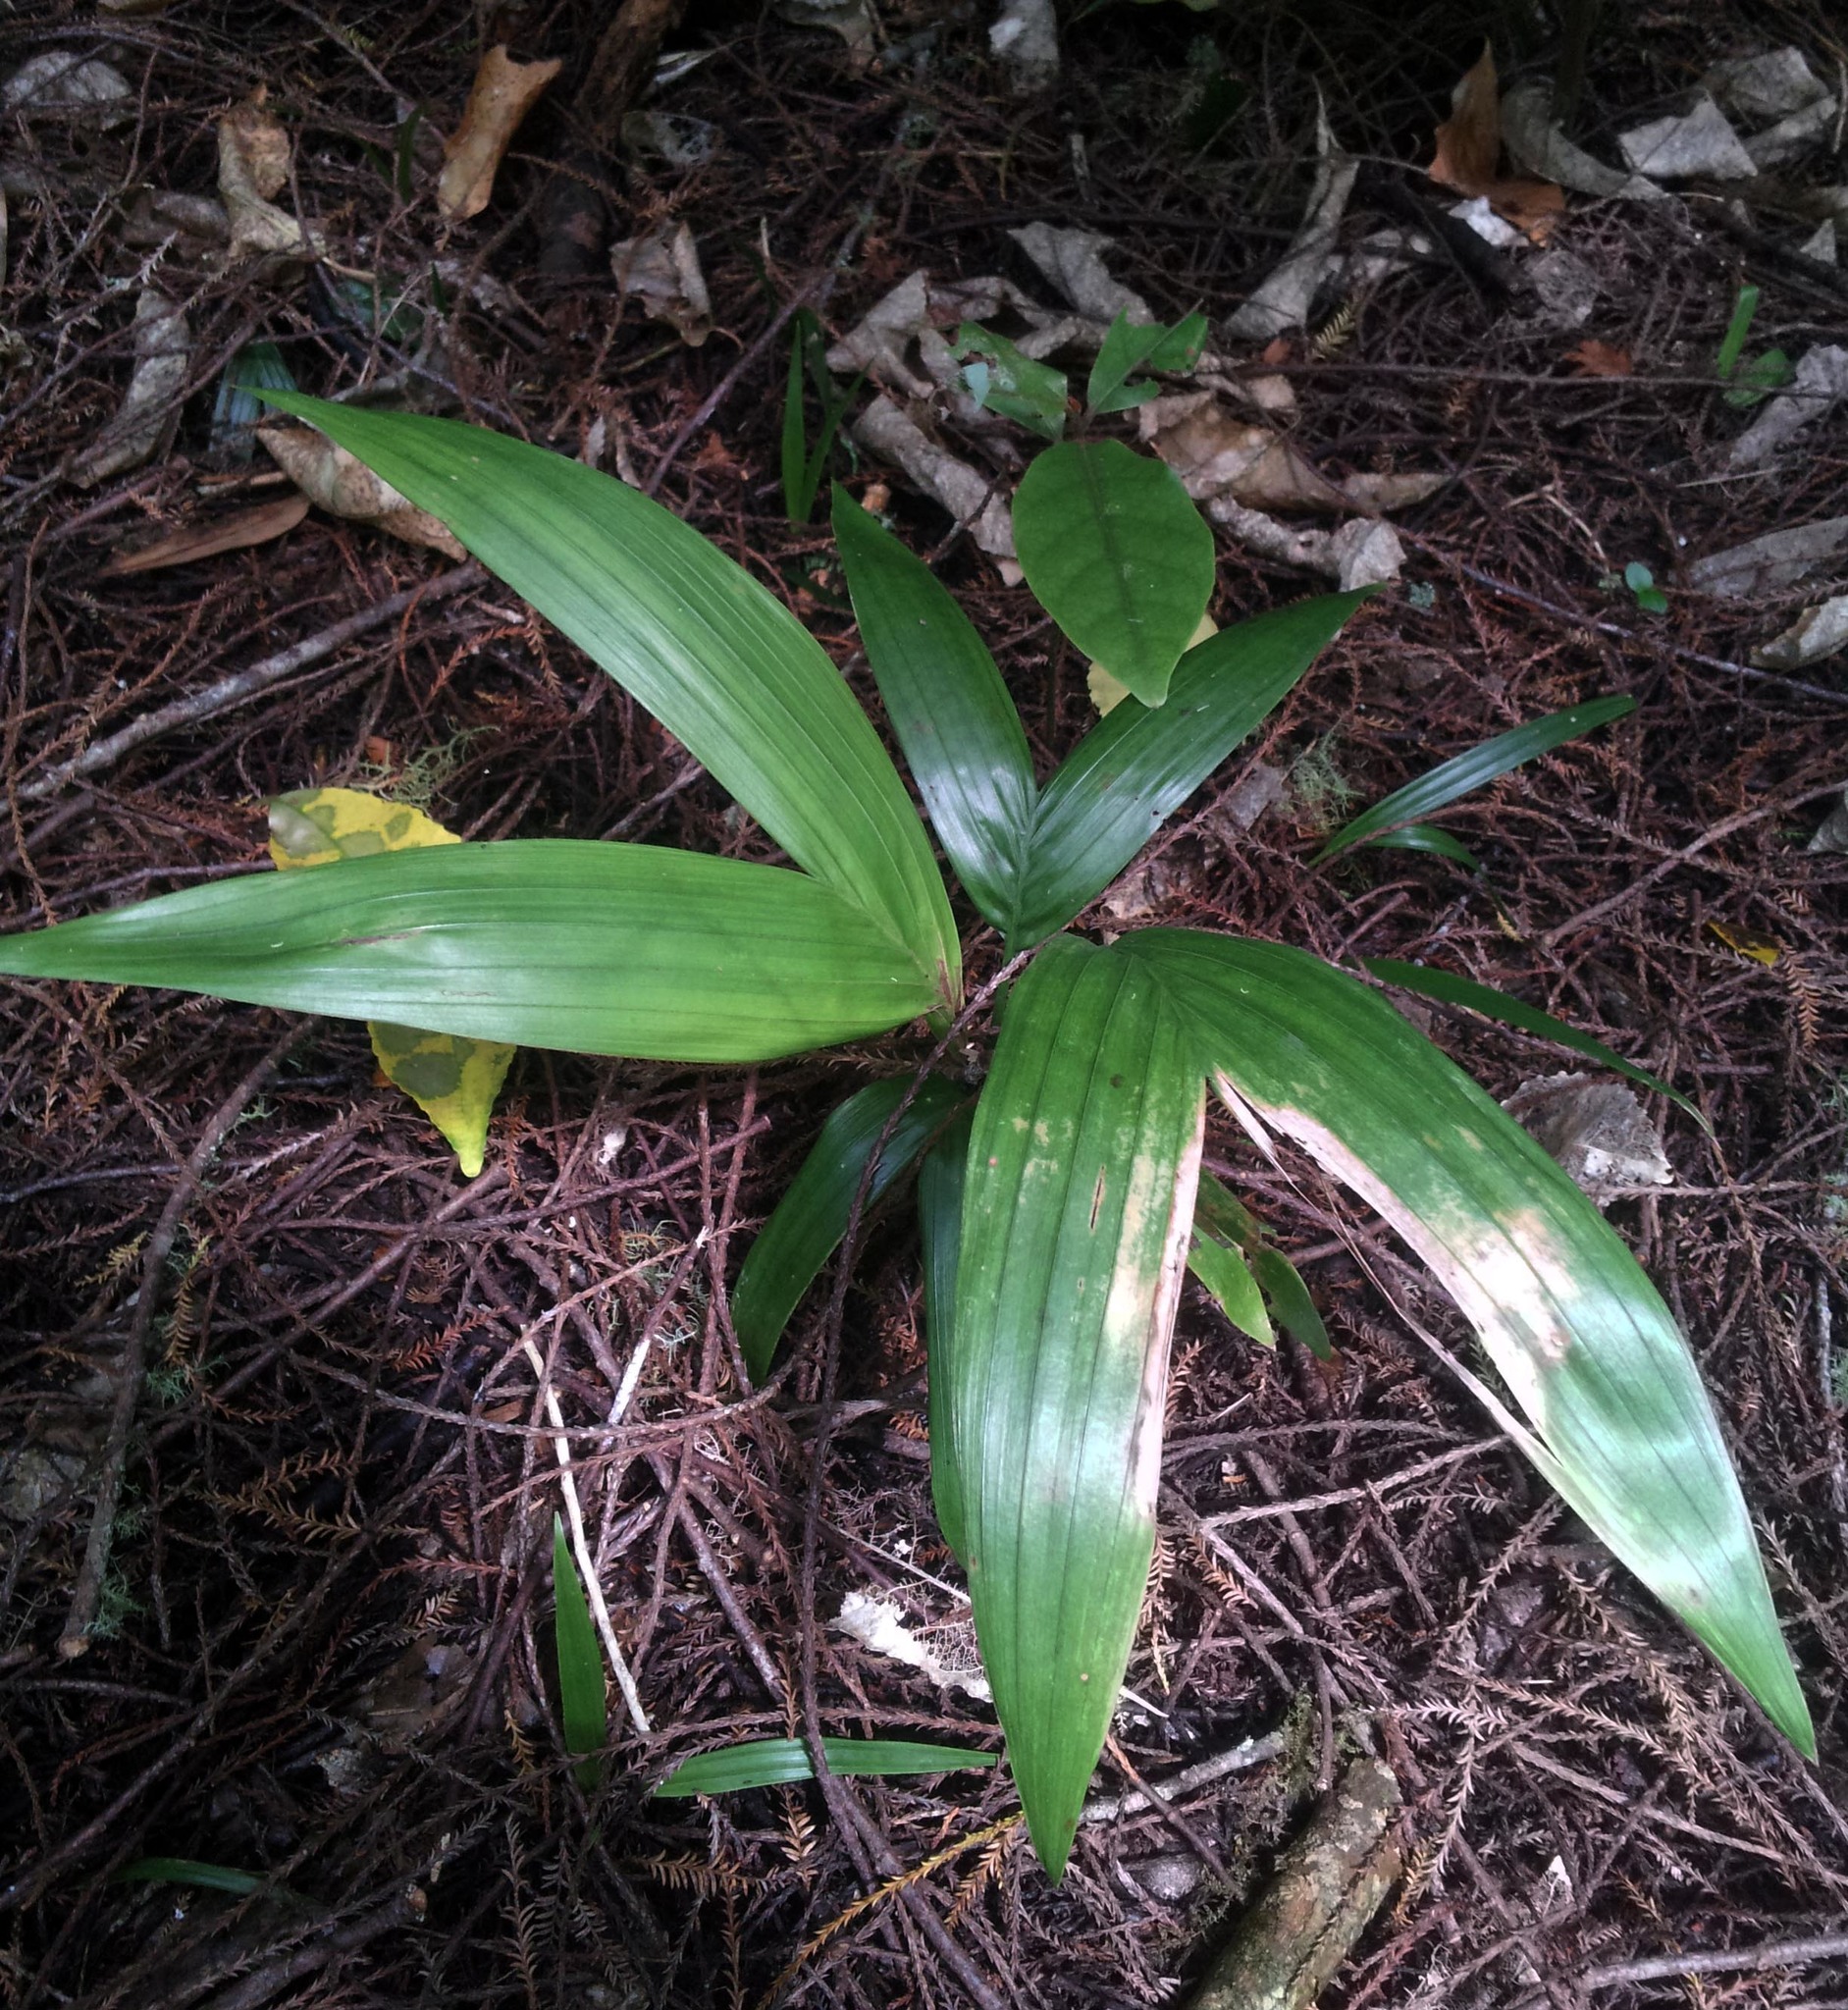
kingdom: Plantae
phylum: Tracheophyta
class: Liliopsida
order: Arecales
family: Arecaceae
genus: Archontophoenix
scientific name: Archontophoenix cunninghamiana
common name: Piccabeen bangalow palm
